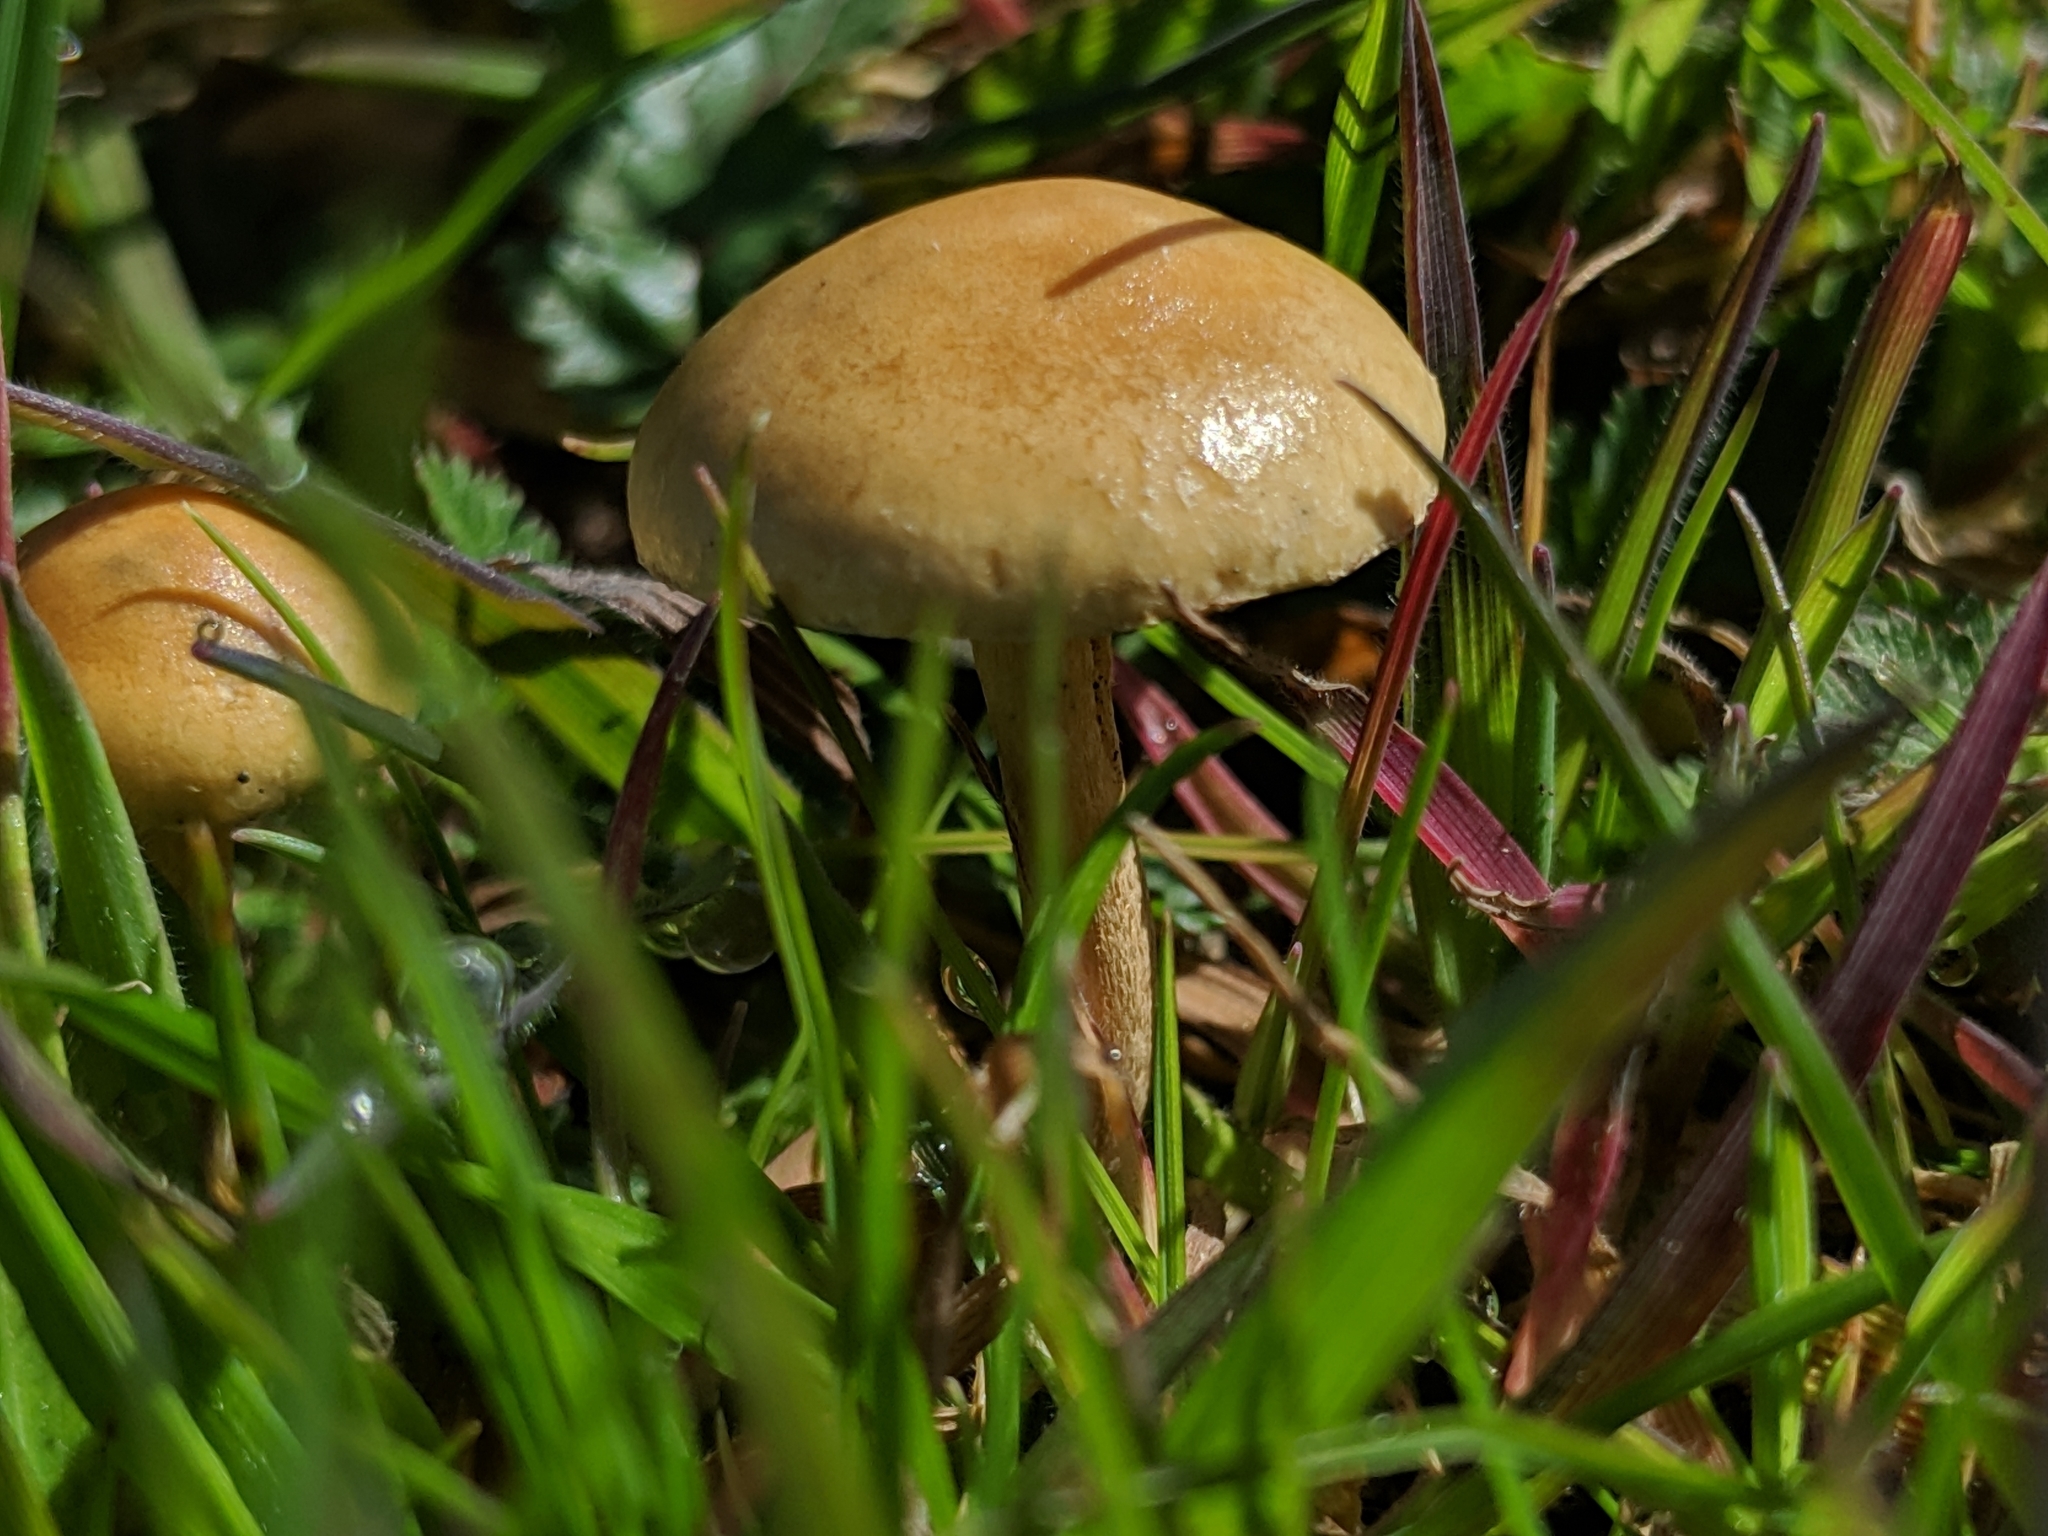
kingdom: Fungi
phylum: Basidiomycota
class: Agaricomycetes
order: Agaricales
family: Strophariaceae
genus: Agrocybe
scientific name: Agrocybe pediades
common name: Common fieldcap
